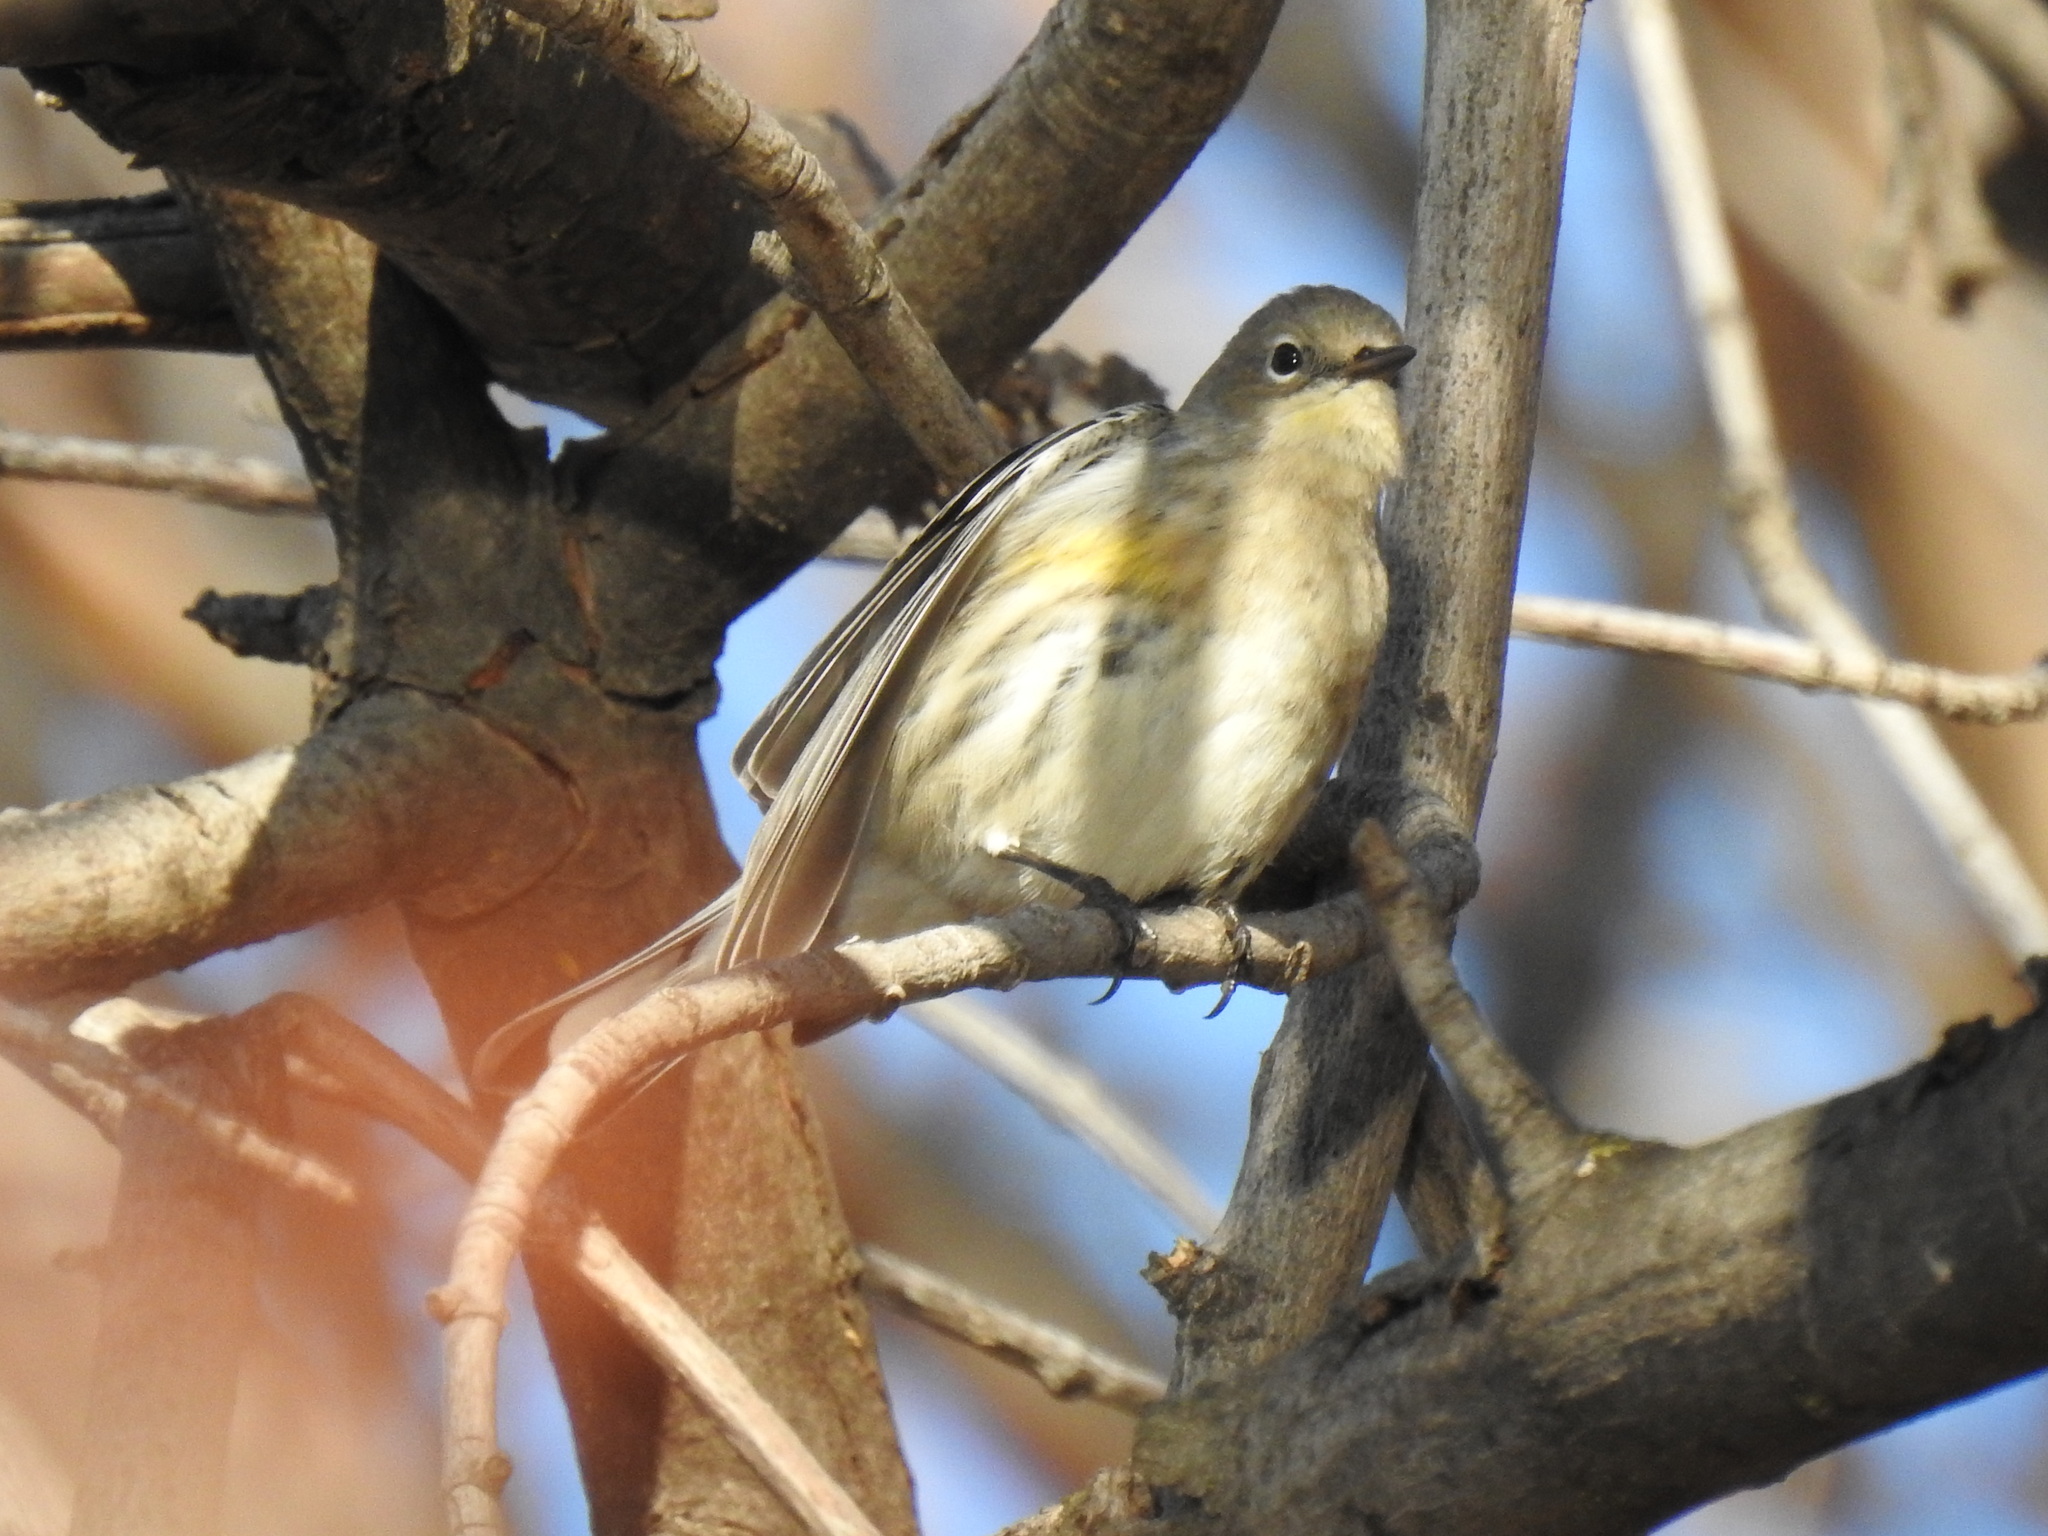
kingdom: Animalia
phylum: Chordata
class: Aves
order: Passeriformes
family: Parulidae
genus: Setophaga
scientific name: Setophaga coronata
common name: Myrtle warbler
